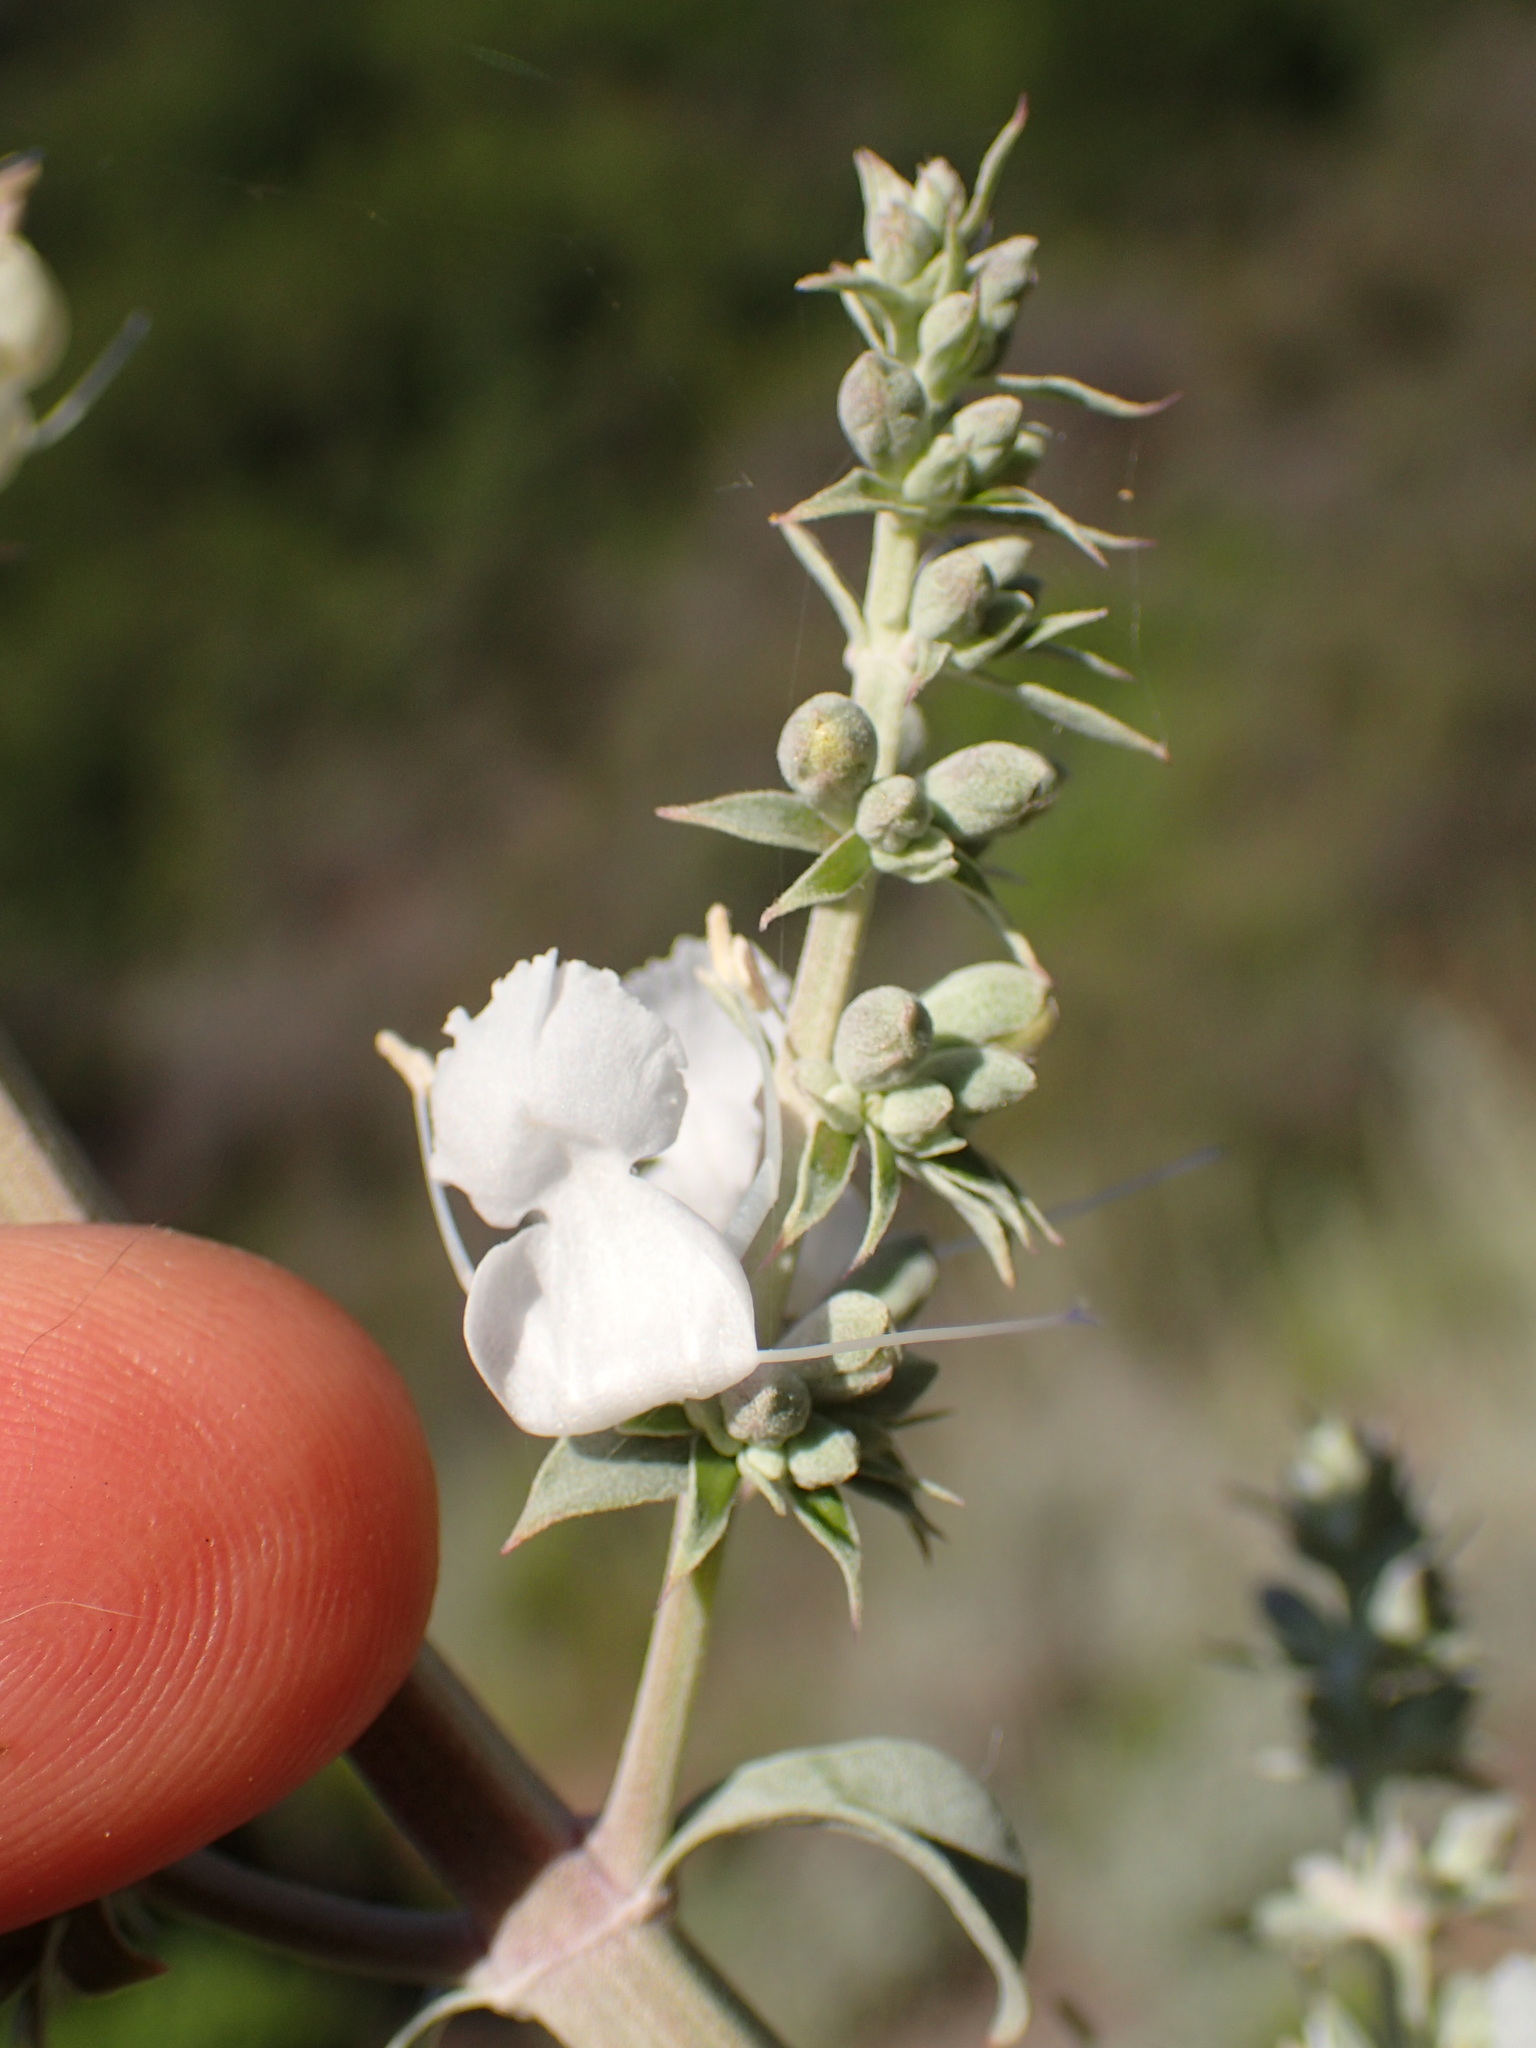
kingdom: Plantae
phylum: Tracheophyta
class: Magnoliopsida
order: Lamiales
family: Lamiaceae
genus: Salvia
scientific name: Salvia apiana
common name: White sage
